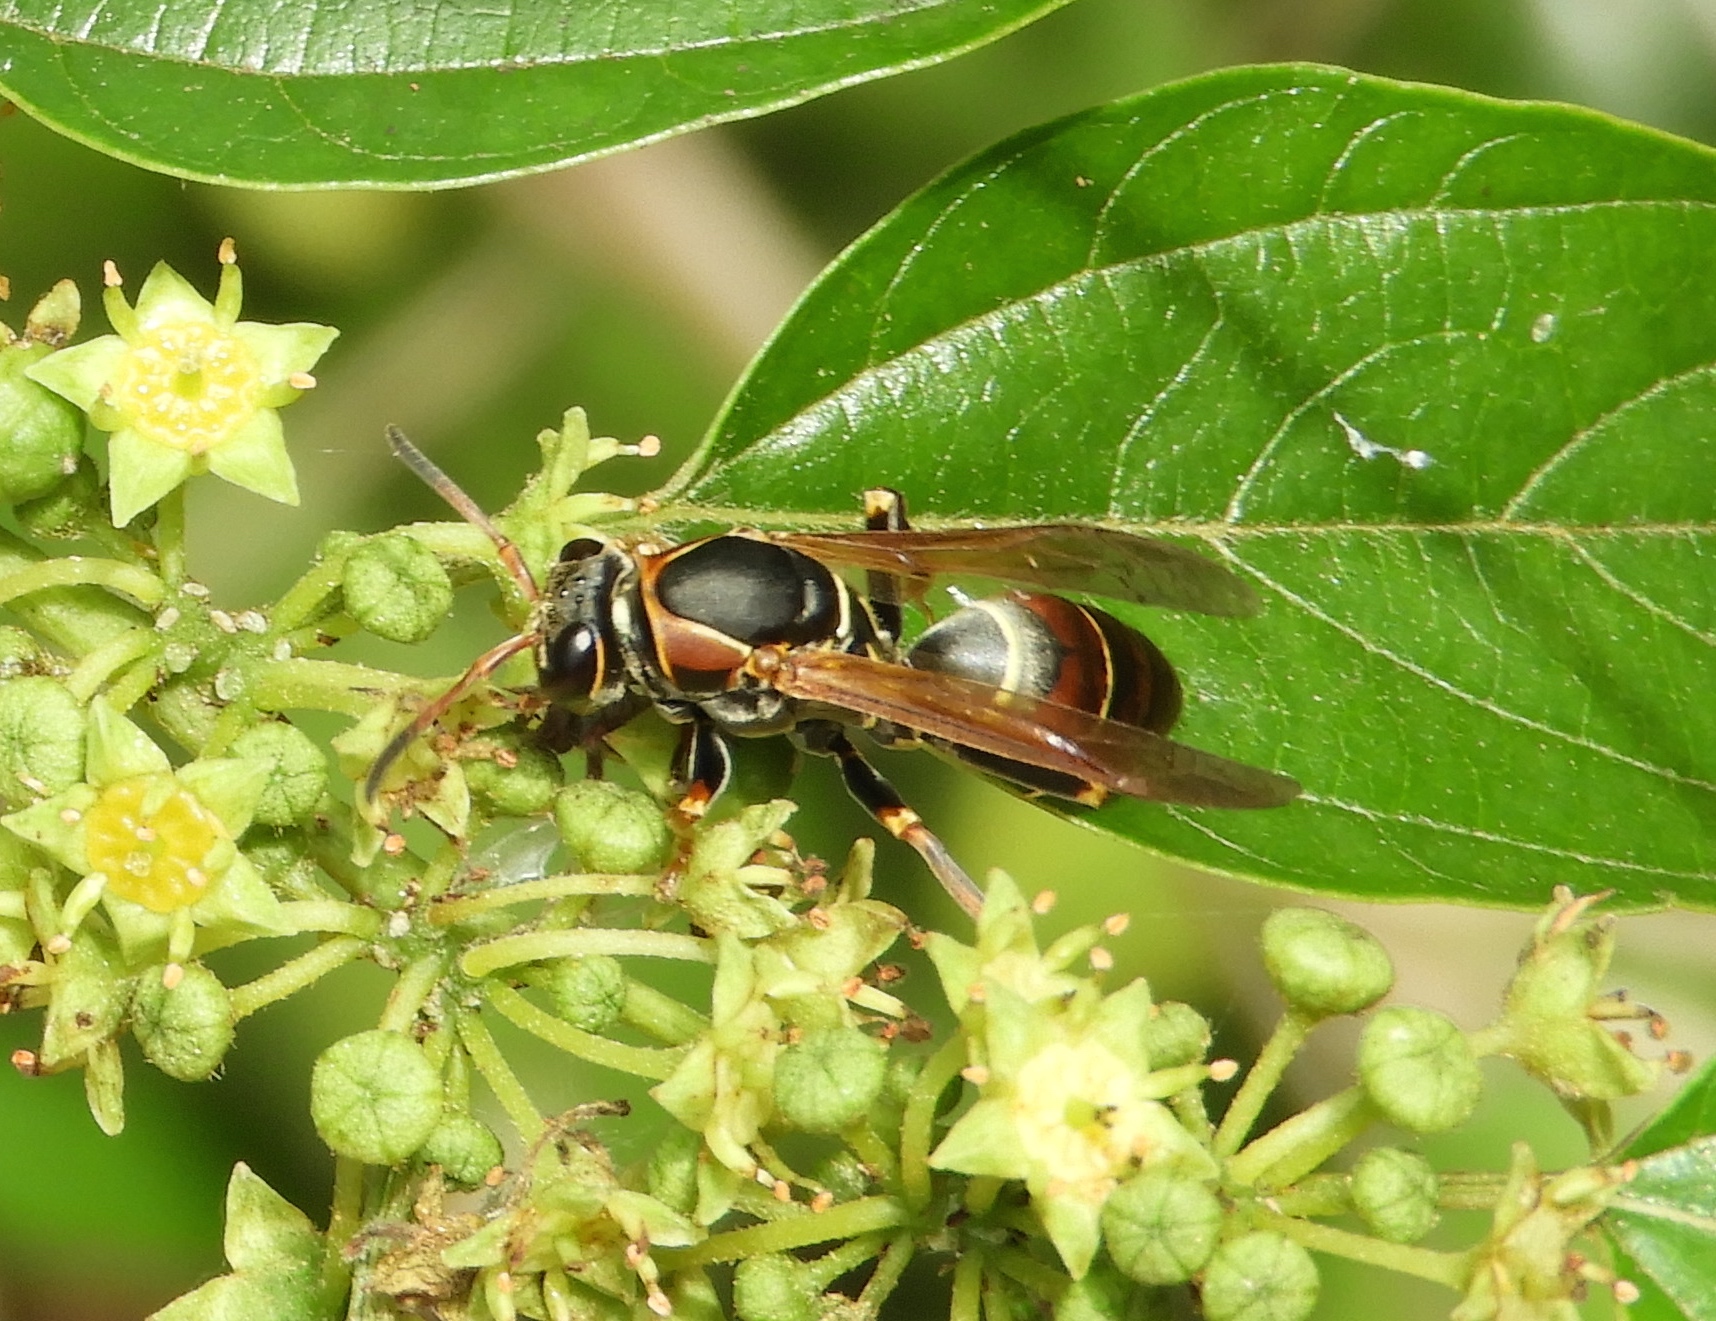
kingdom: Animalia
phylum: Arthropoda
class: Insecta
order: Hymenoptera
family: Eumenidae
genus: Polistes
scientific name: Polistes pacificus
